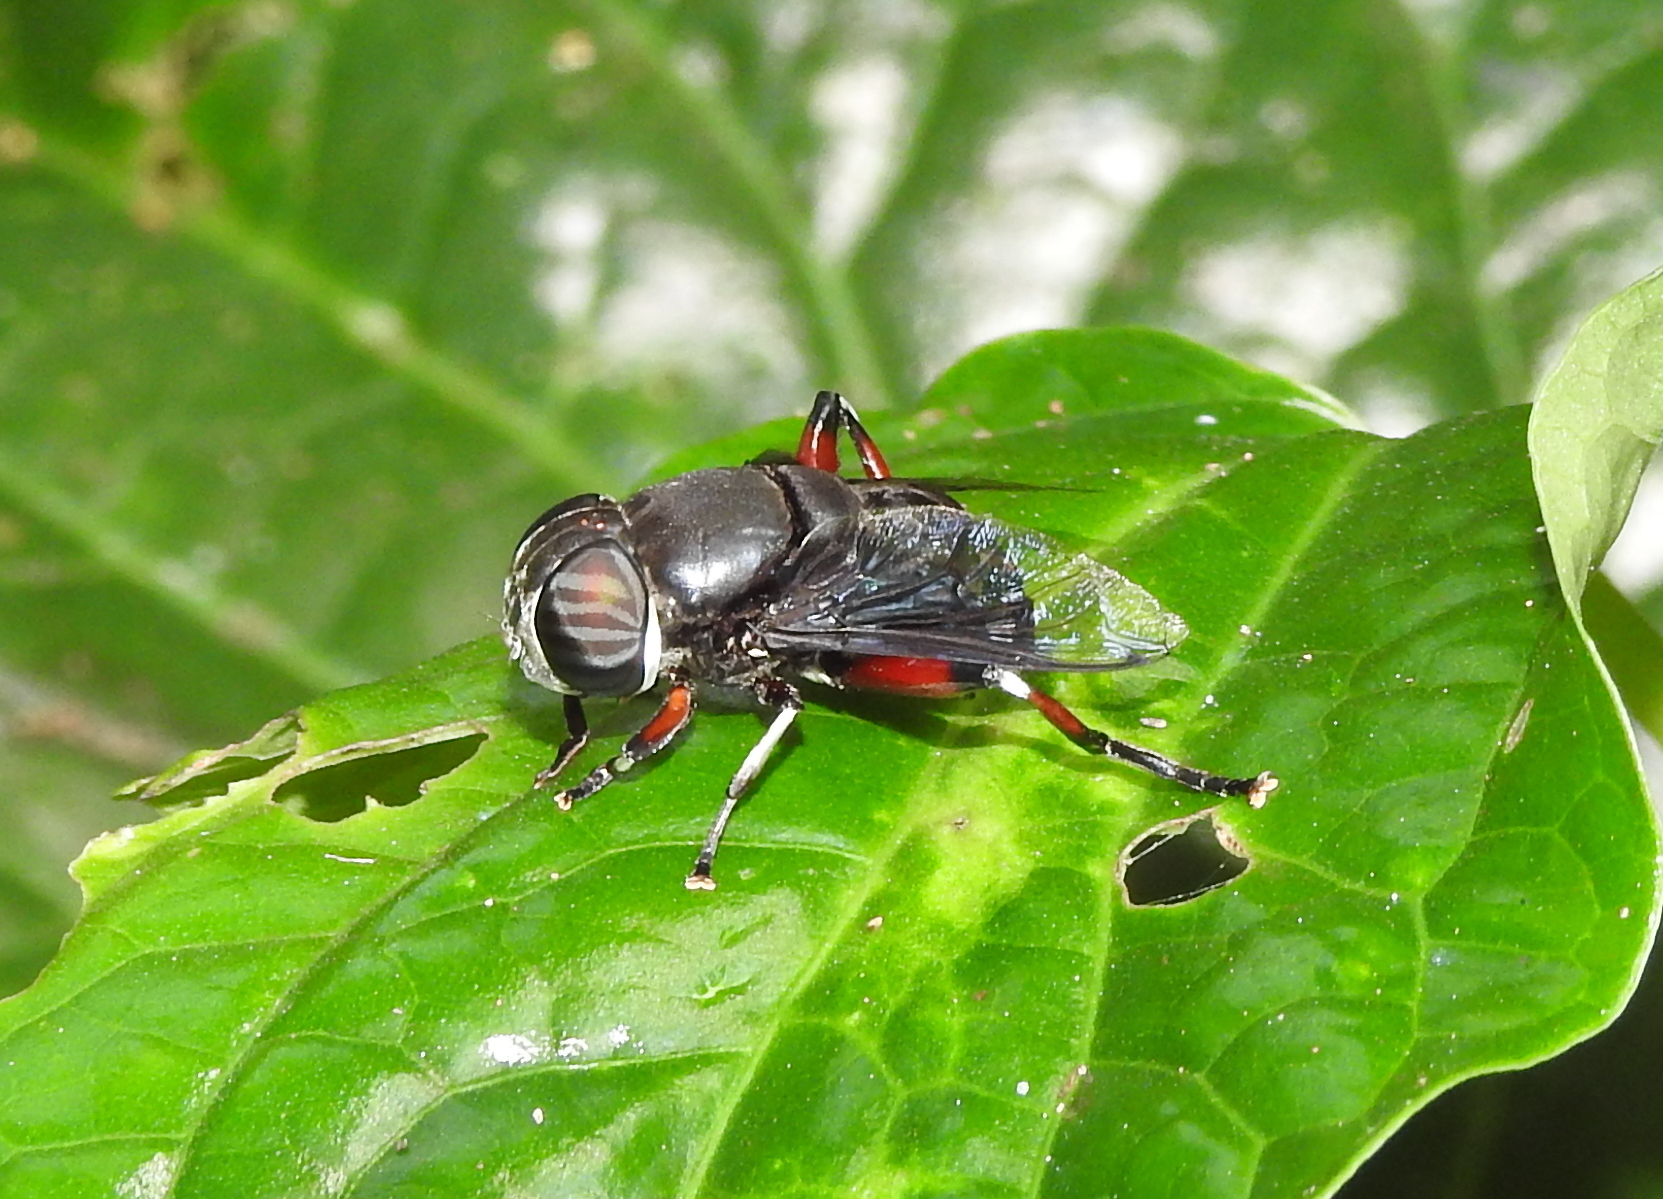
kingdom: Animalia
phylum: Arthropoda
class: Insecta
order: Diptera
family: Syrphidae
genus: Phytomia
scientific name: Phytomia crassa
